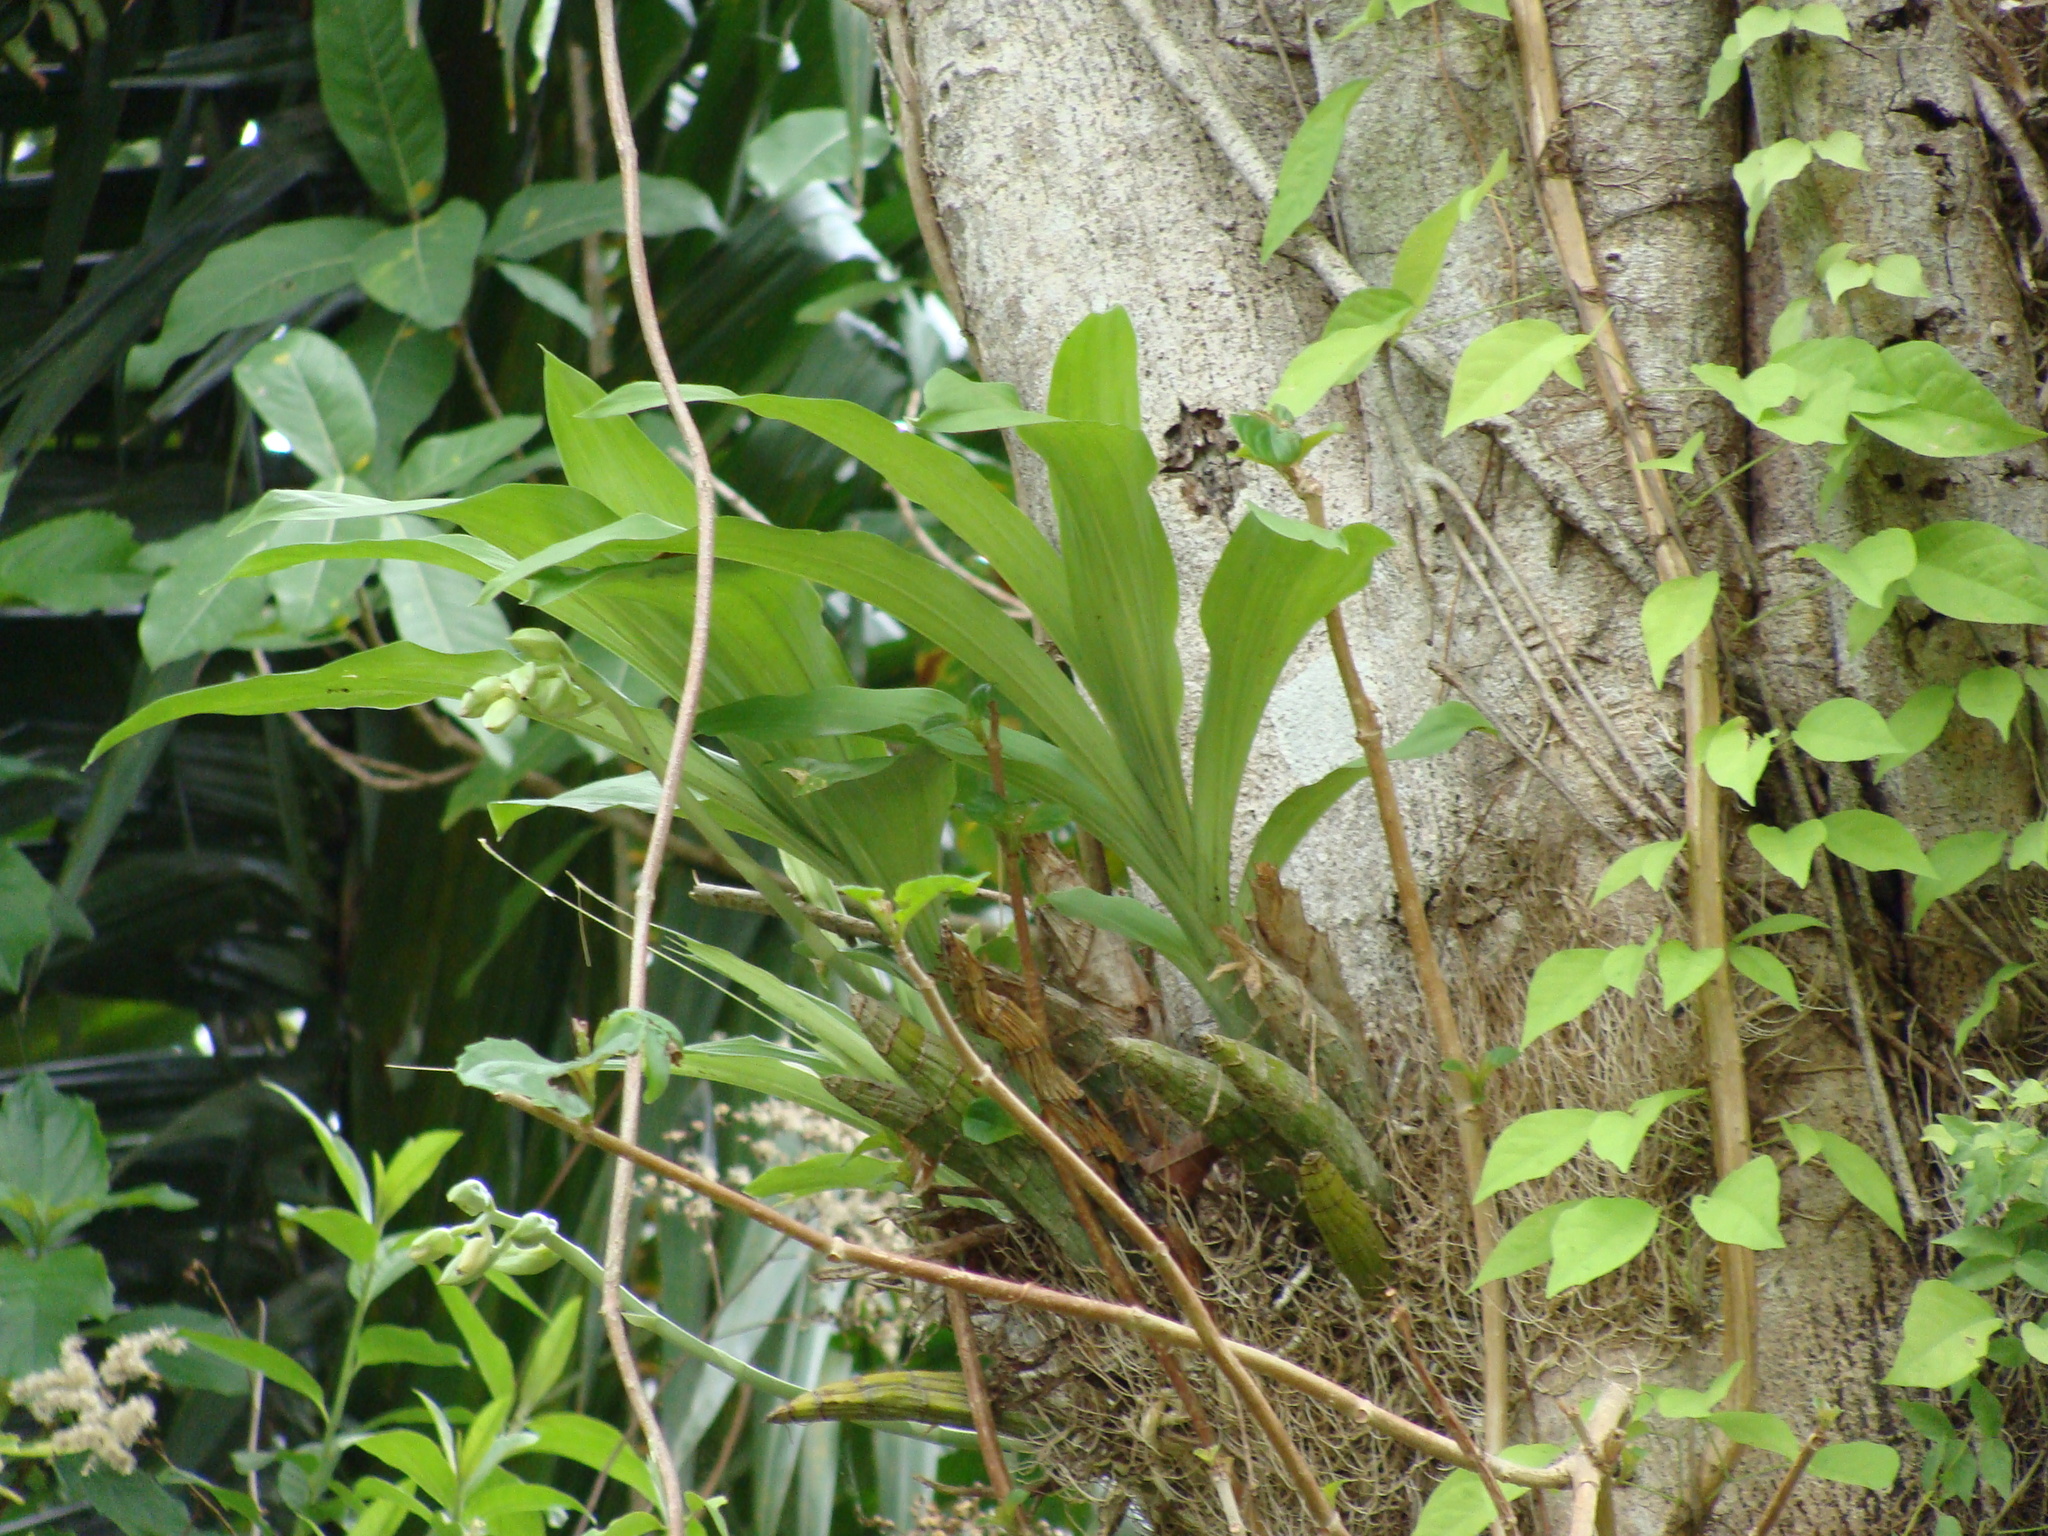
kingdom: Plantae
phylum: Tracheophyta
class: Liliopsida
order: Asparagales
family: Orchidaceae
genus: Catasetum
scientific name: Catasetum integerrimum
